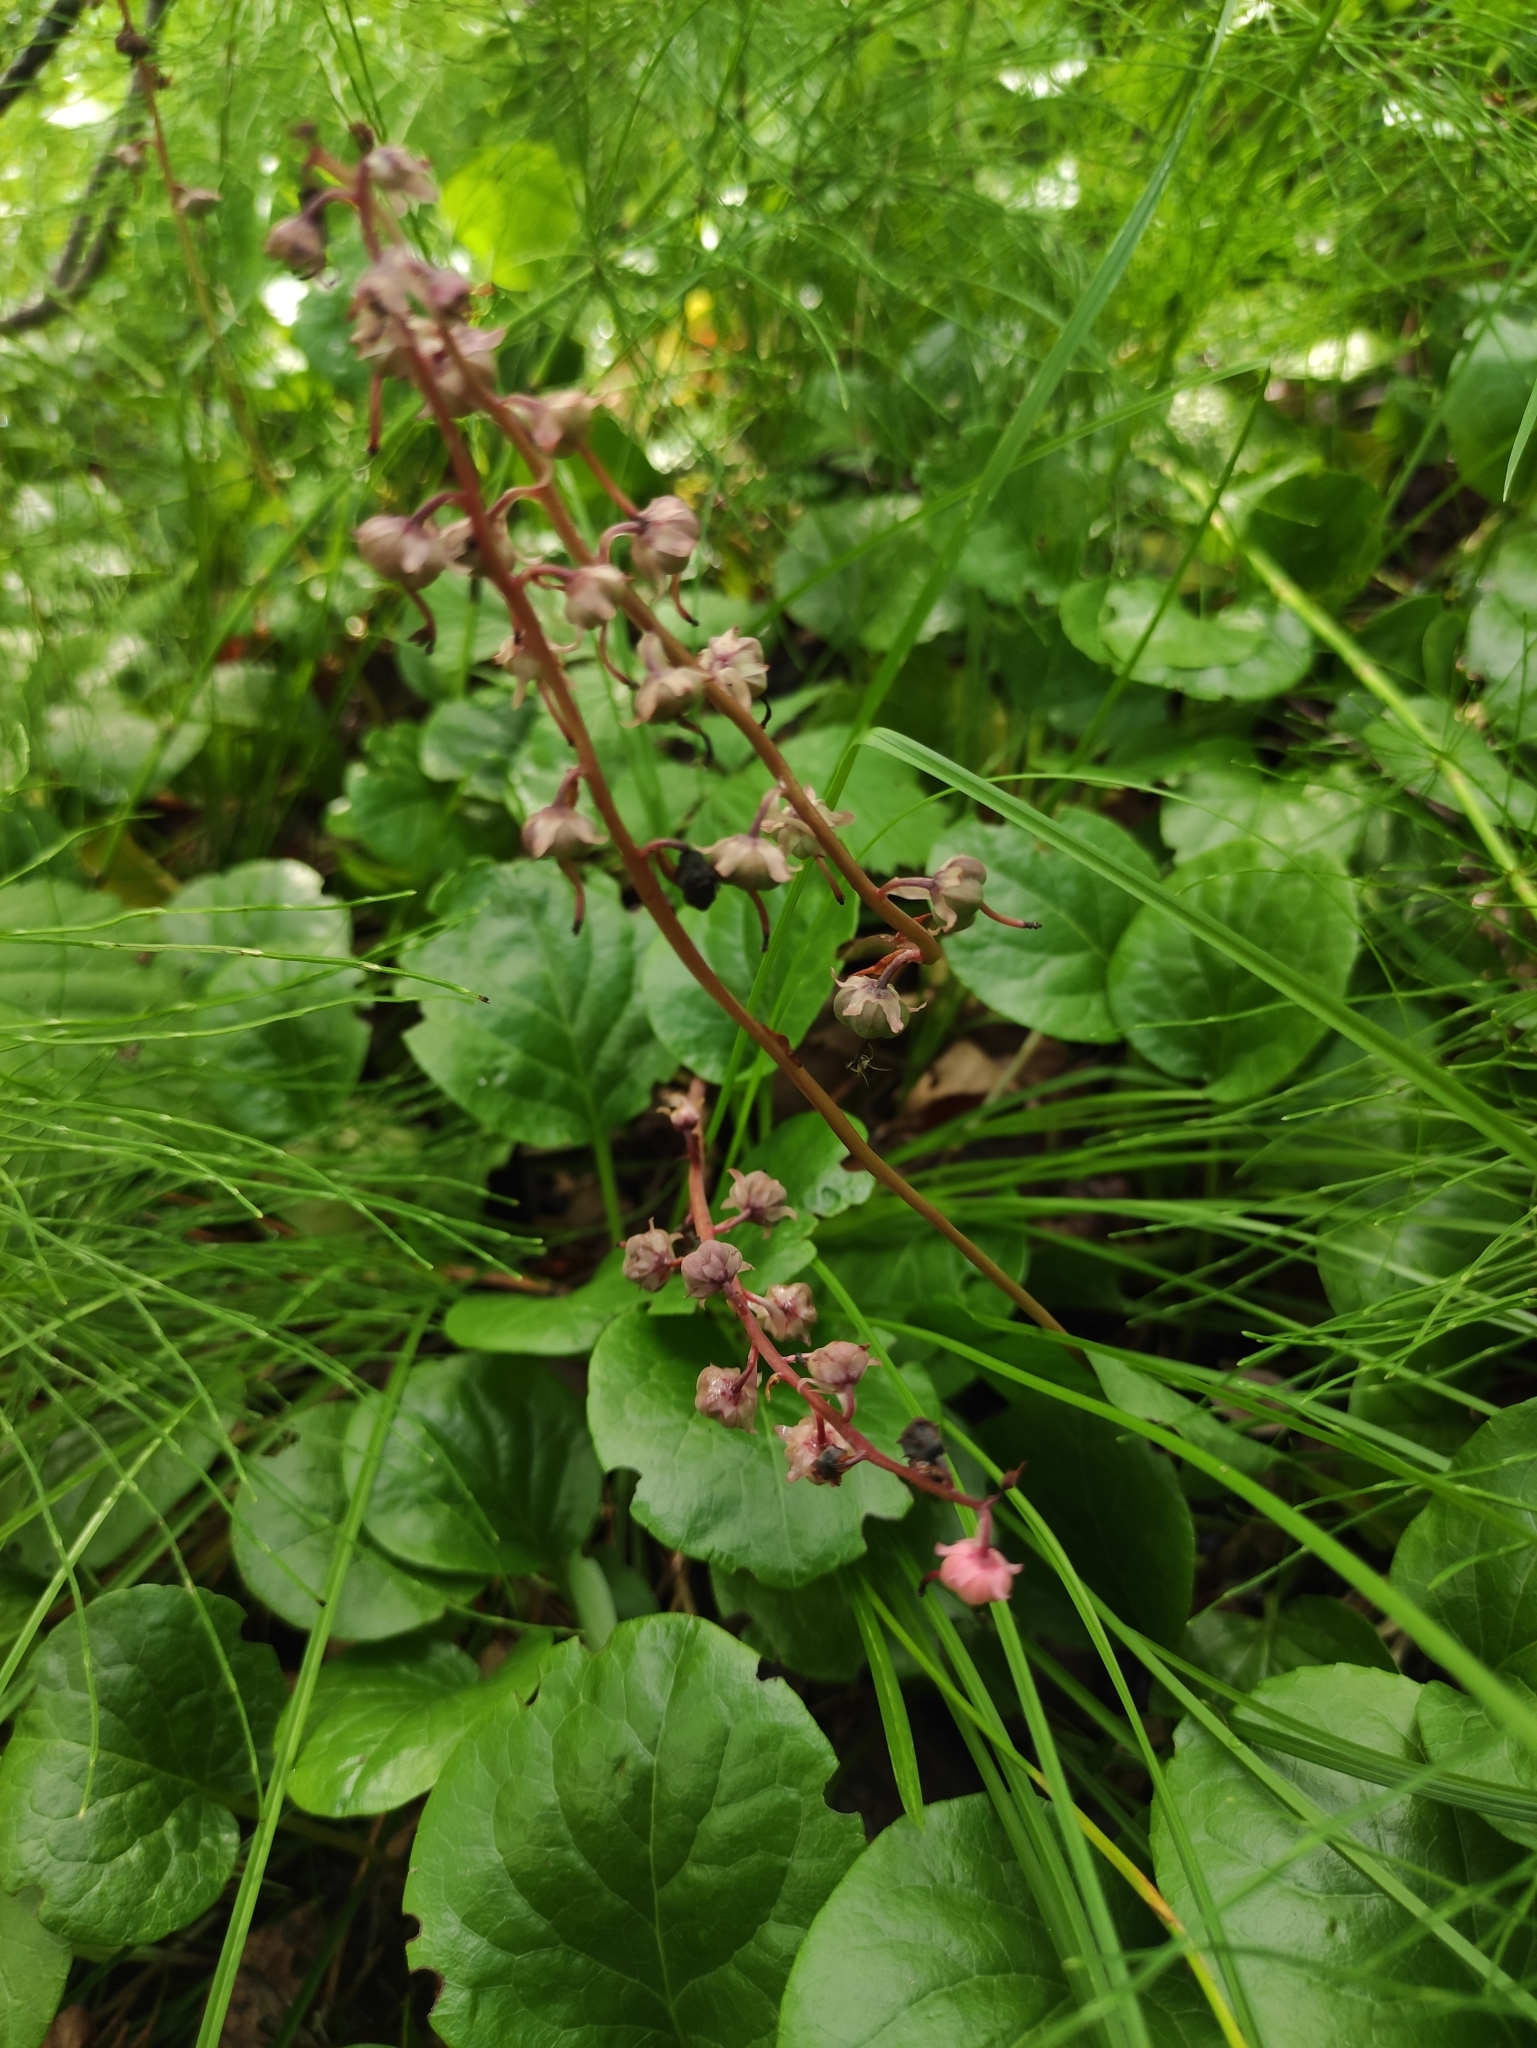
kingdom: Plantae
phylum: Tracheophyta
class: Magnoliopsida
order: Ericales
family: Ericaceae
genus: Pyrola
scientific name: Pyrola asarifolia
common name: Bog wintergreen
